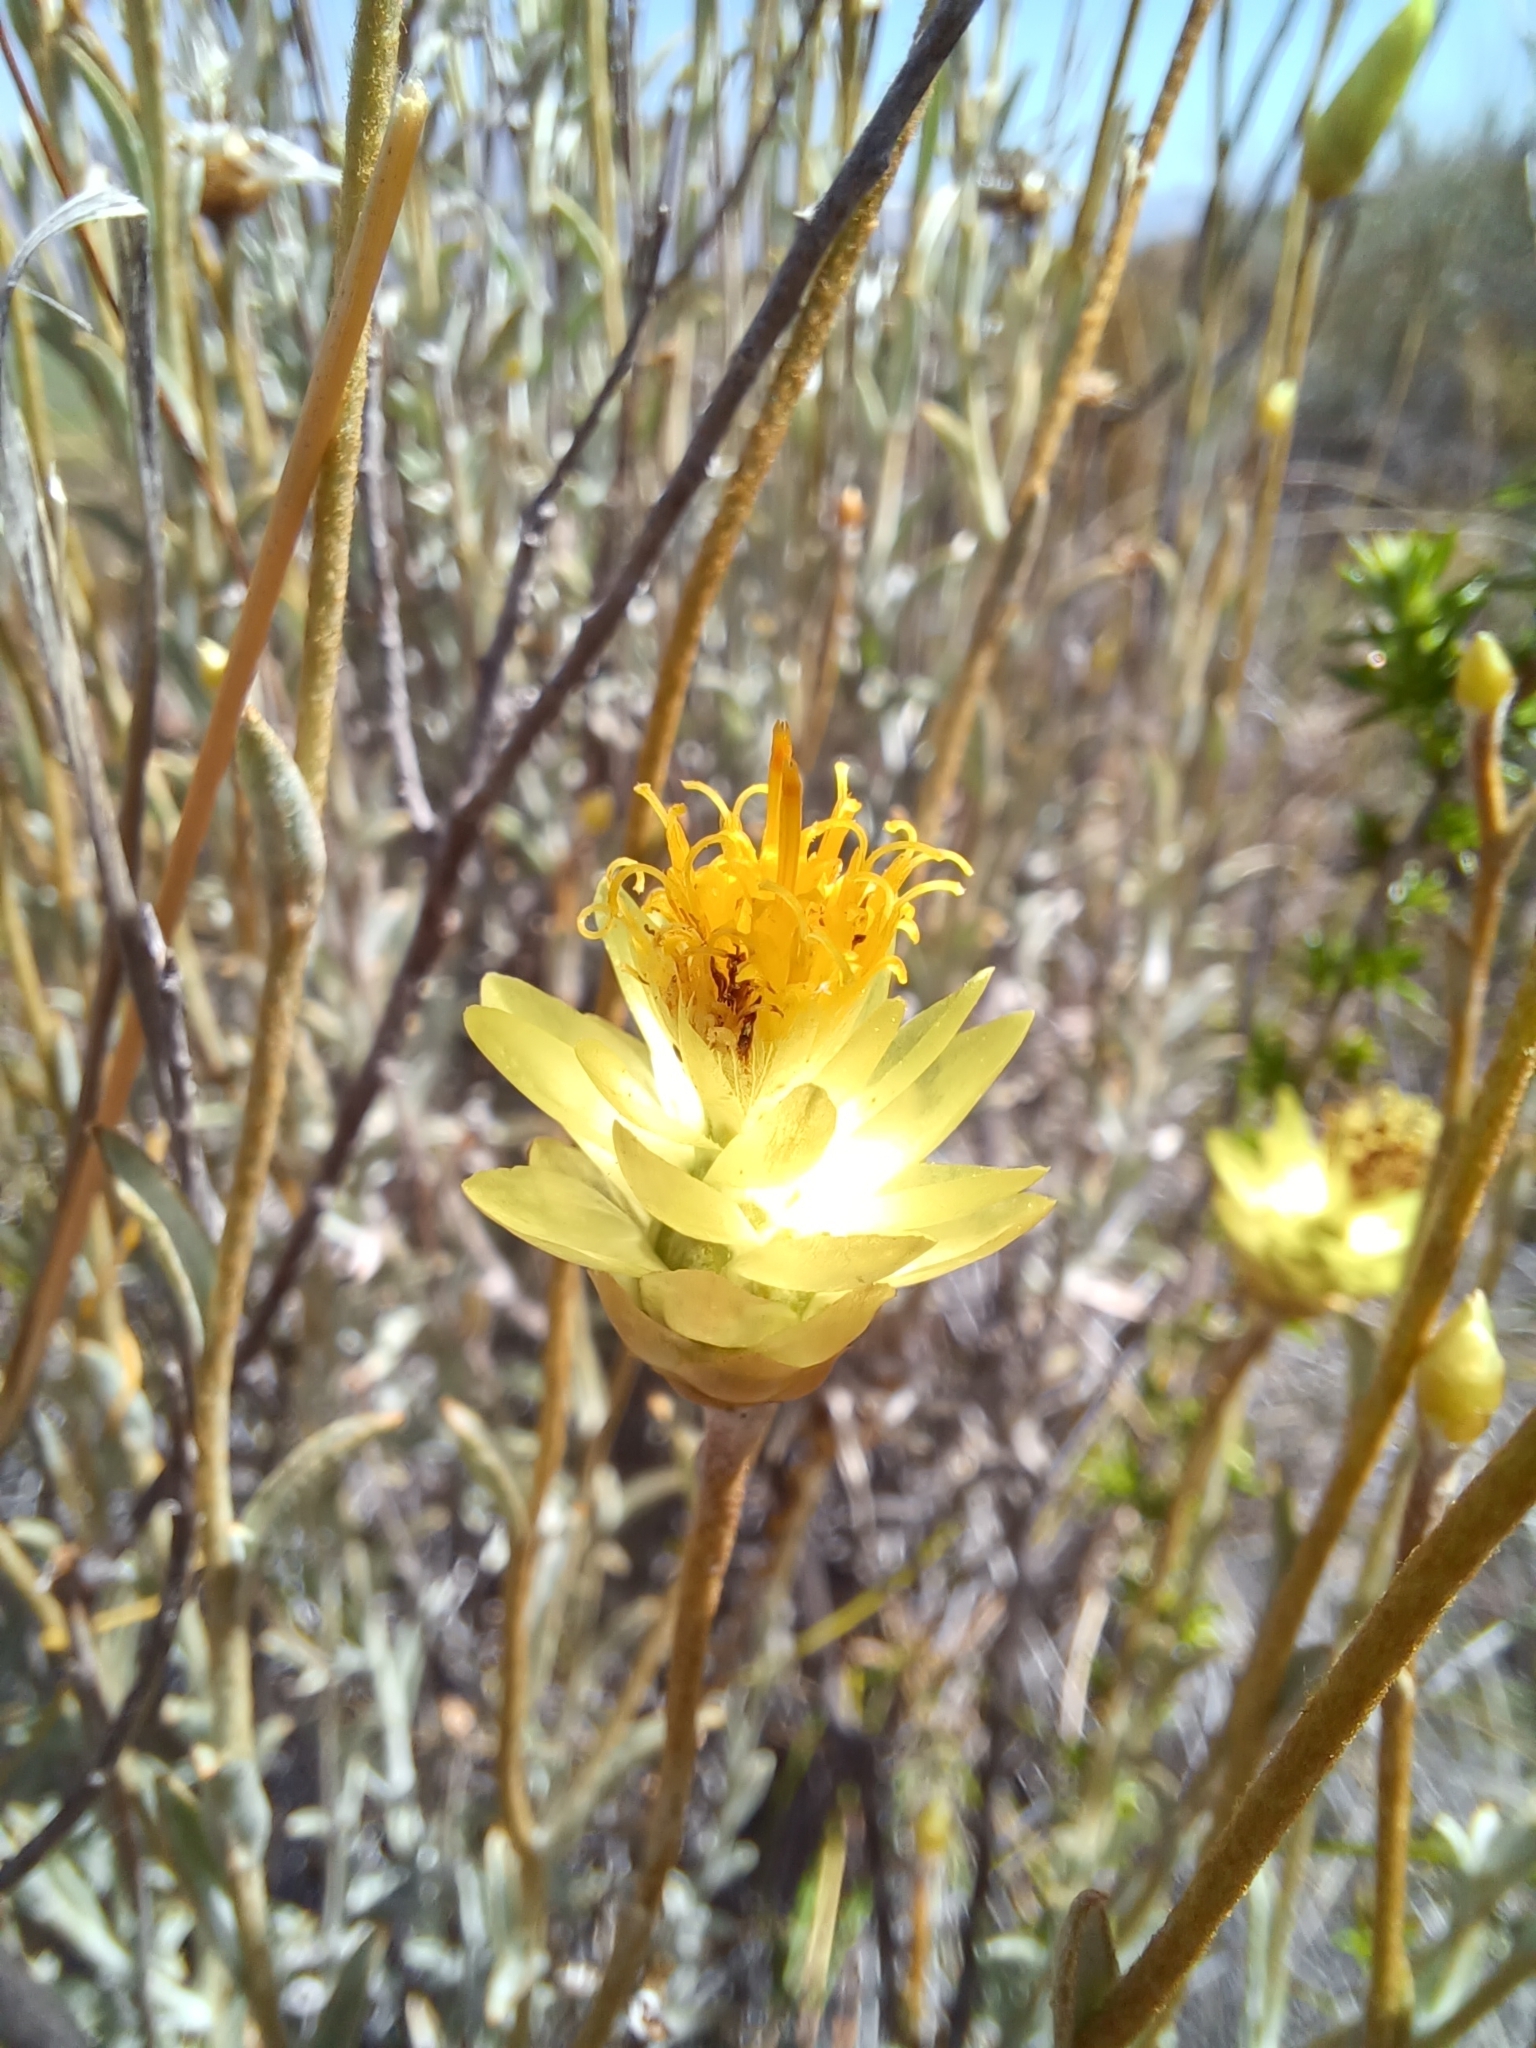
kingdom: Plantae
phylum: Tracheophyta
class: Magnoliopsida
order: Asterales
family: Asteraceae
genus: Syncarpha
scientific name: Syncarpha staehelina
